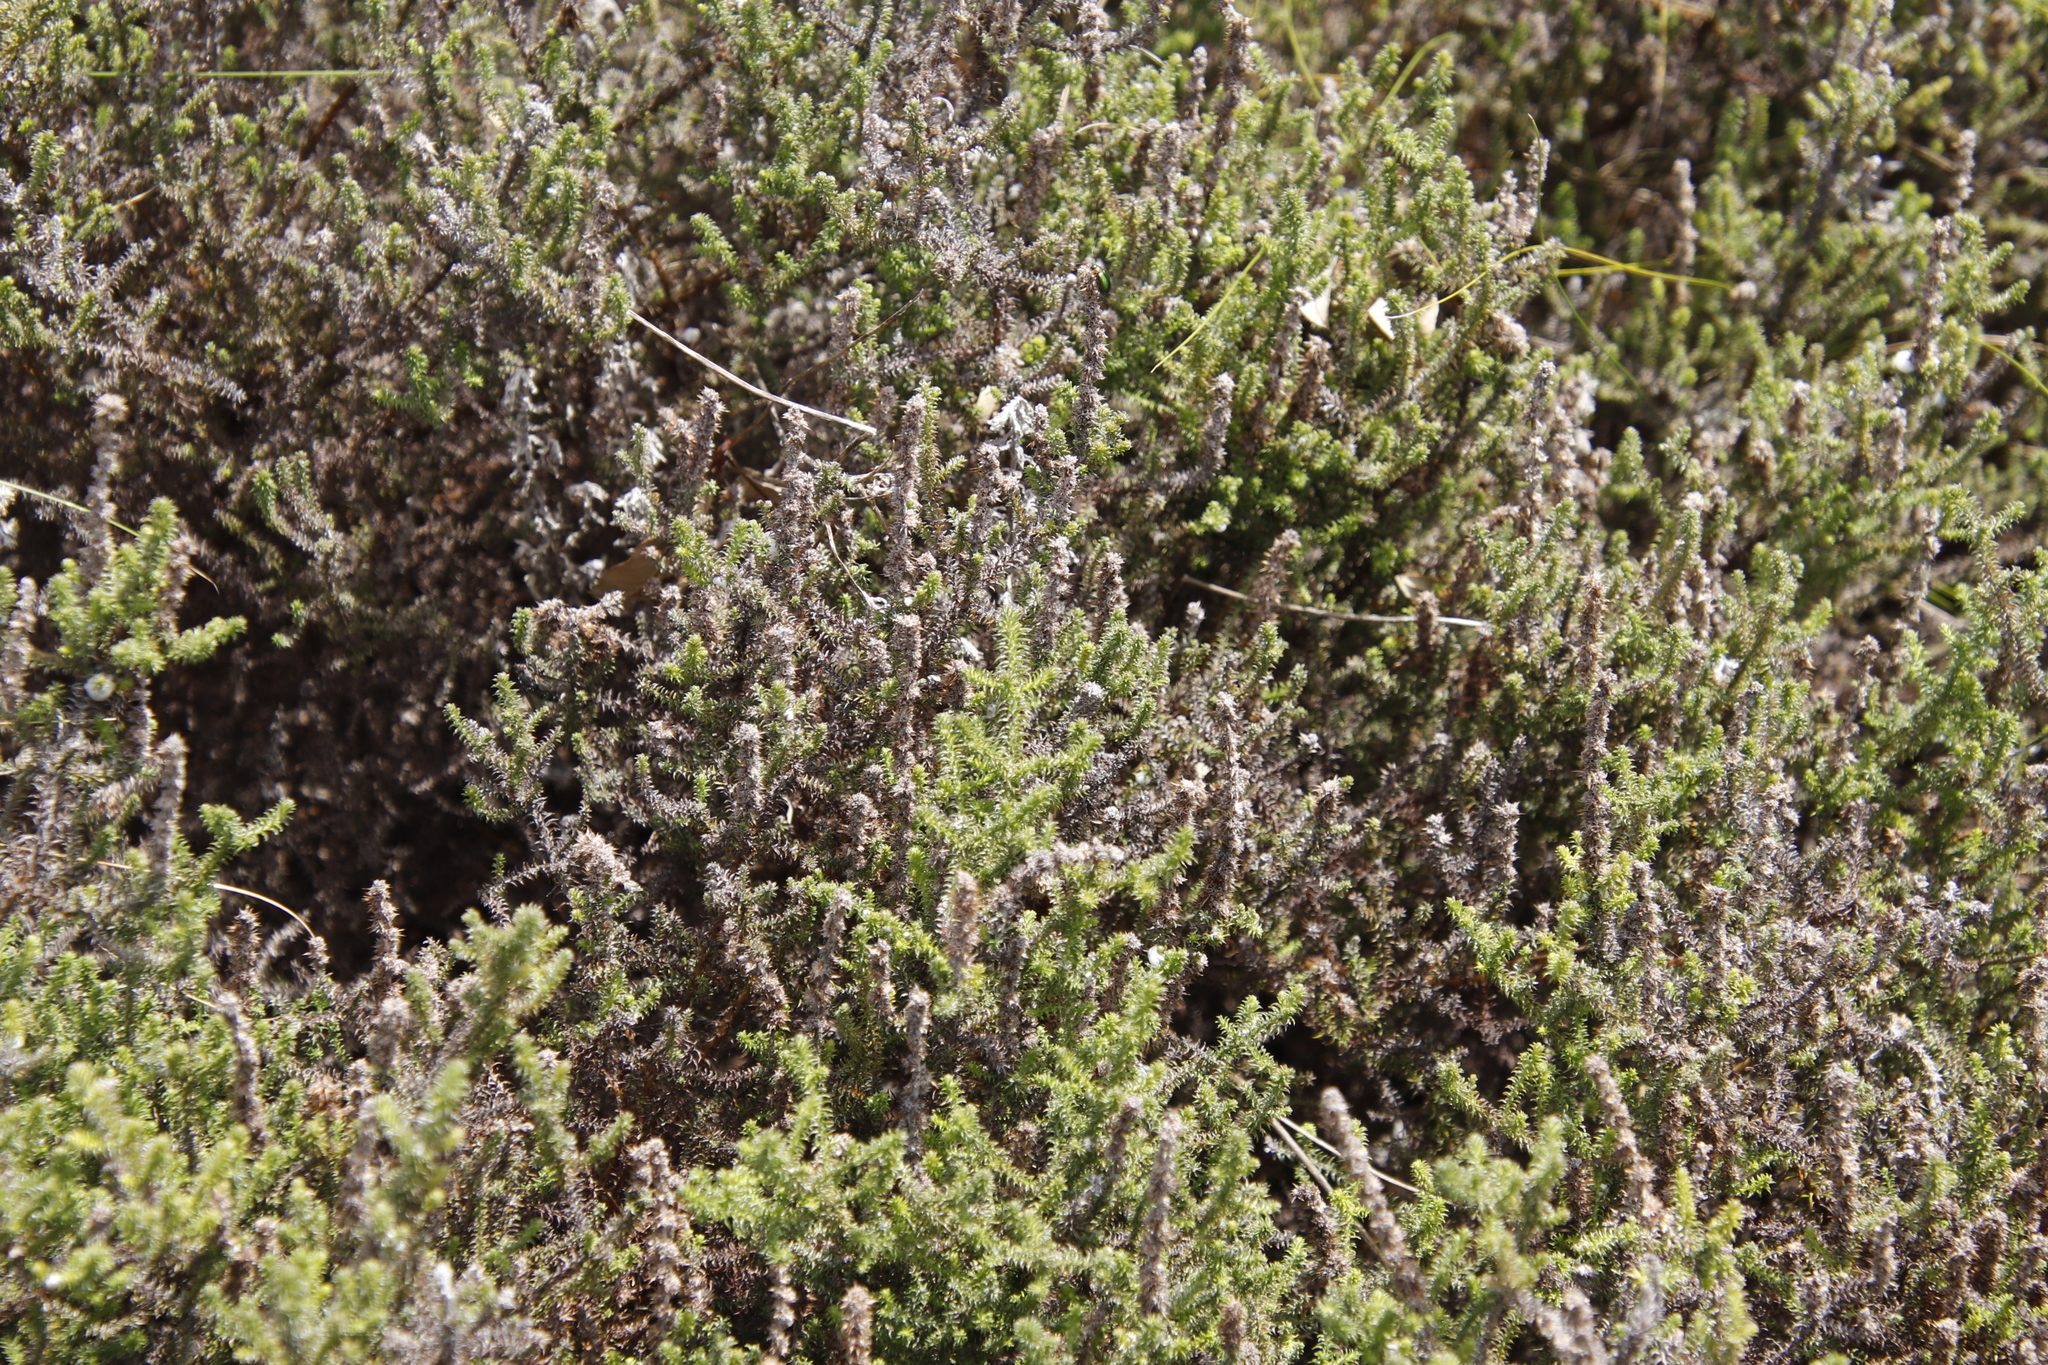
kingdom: Plantae
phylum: Tracheophyta
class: Magnoliopsida
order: Asterales
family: Asteraceae
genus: Seriphium
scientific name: Seriphium cinereum
